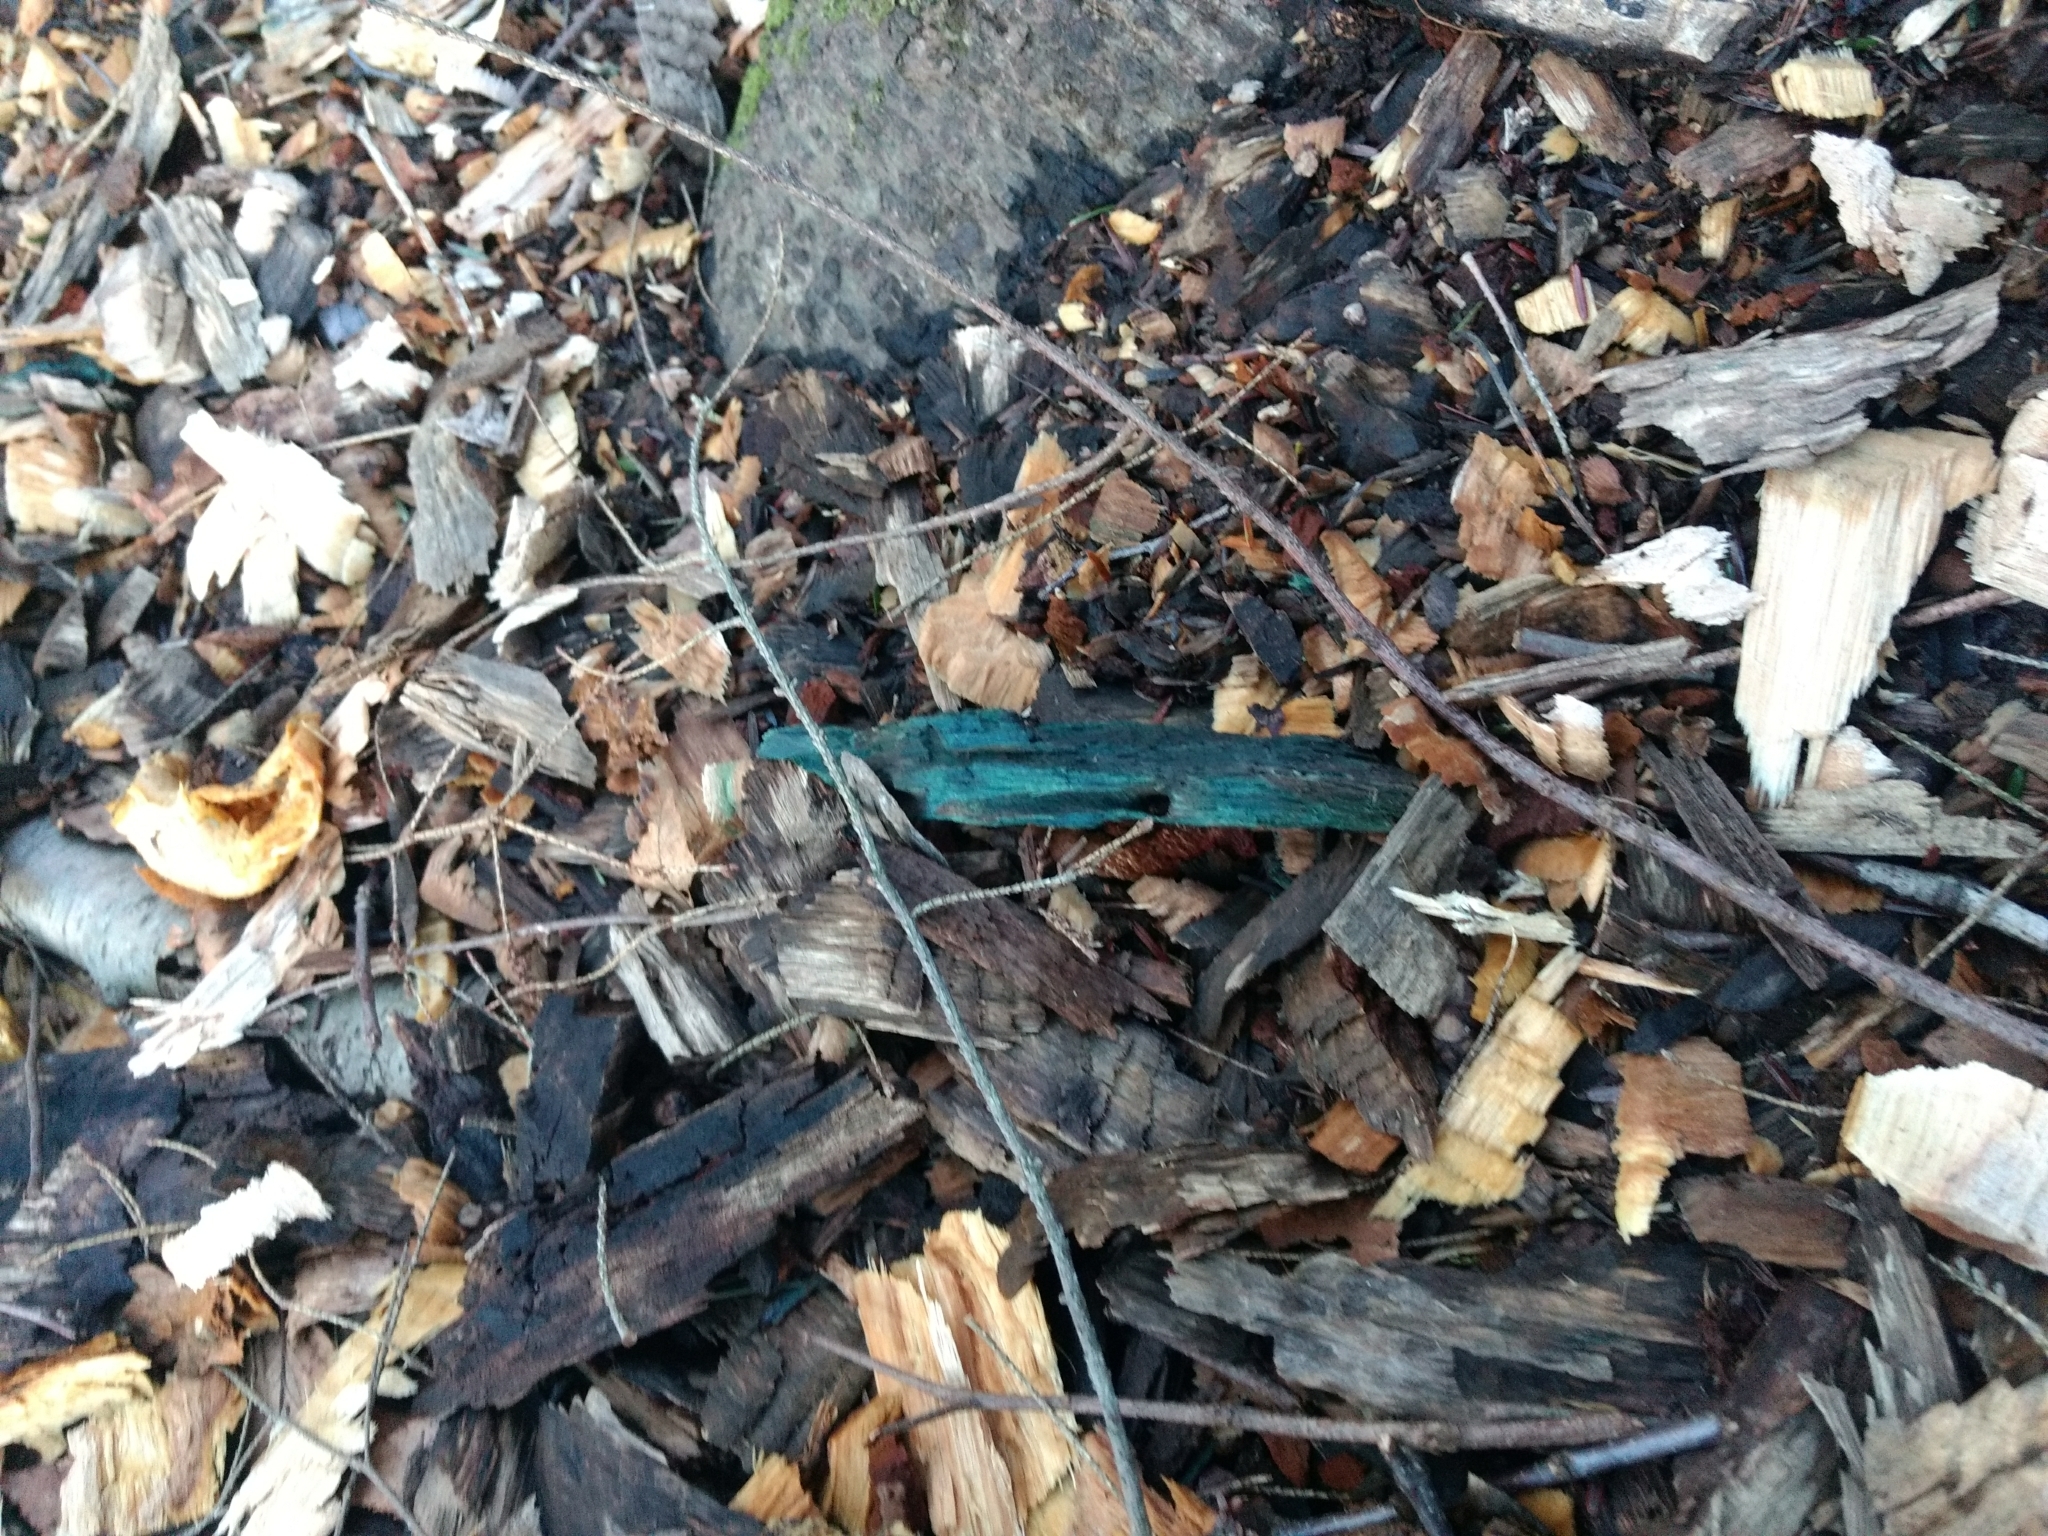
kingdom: Fungi
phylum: Ascomycota
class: Leotiomycetes
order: Helotiales
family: Chlorociboriaceae
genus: Chlorociboria
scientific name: Chlorociboria
